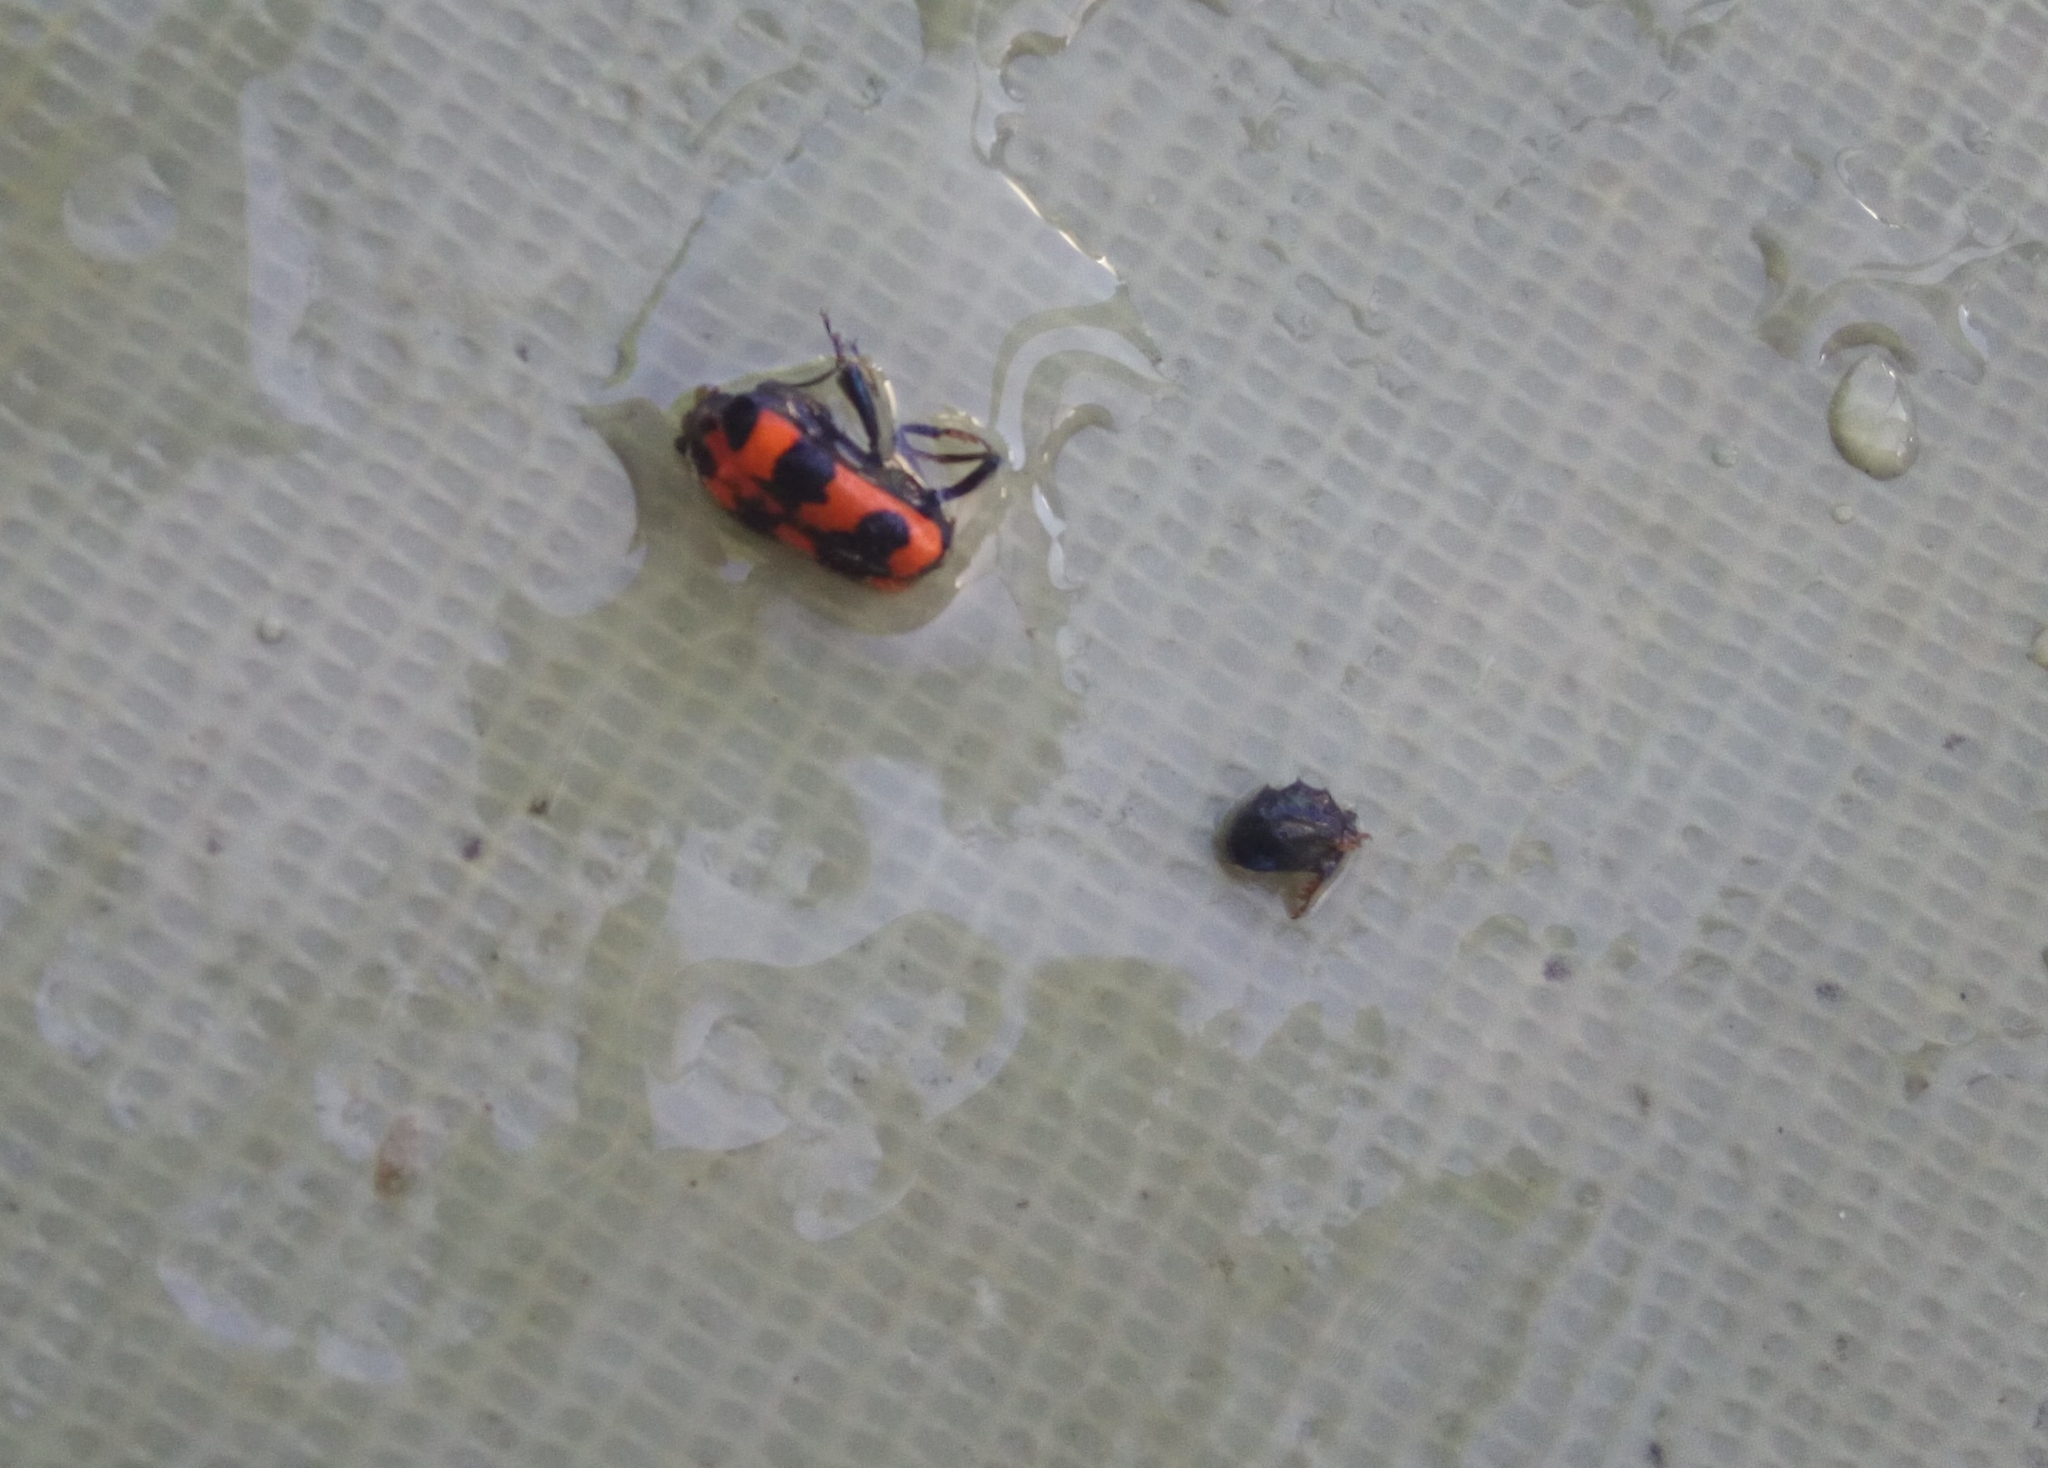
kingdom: Animalia
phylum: Arthropoda
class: Insecta
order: Coleoptera
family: Cleridae
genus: Trichodes
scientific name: Trichodes apiarius
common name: Bee-eating beetle
